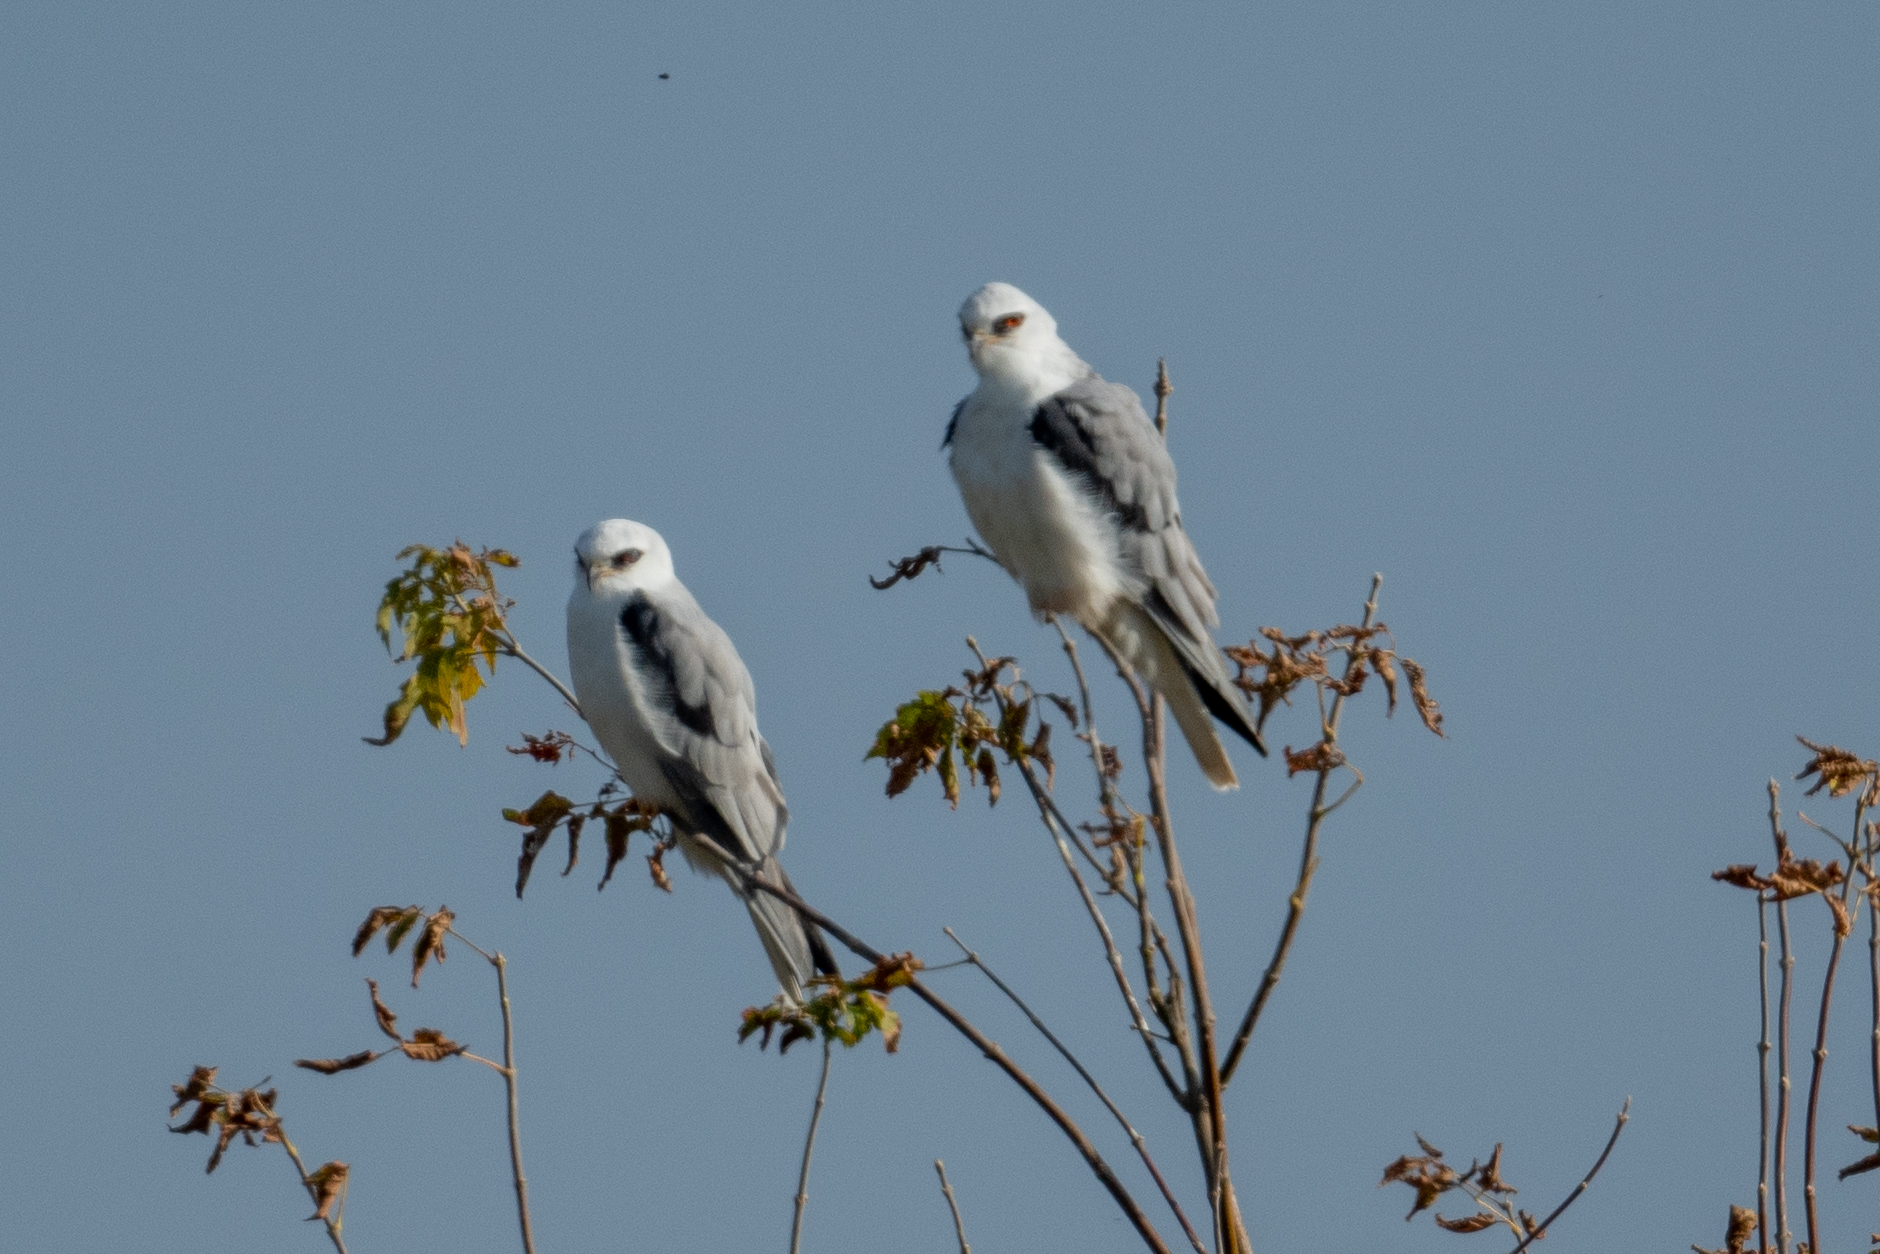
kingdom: Animalia
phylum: Chordata
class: Aves
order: Accipitriformes
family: Accipitridae
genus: Elanus
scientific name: Elanus leucurus
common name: White-tailed kite
